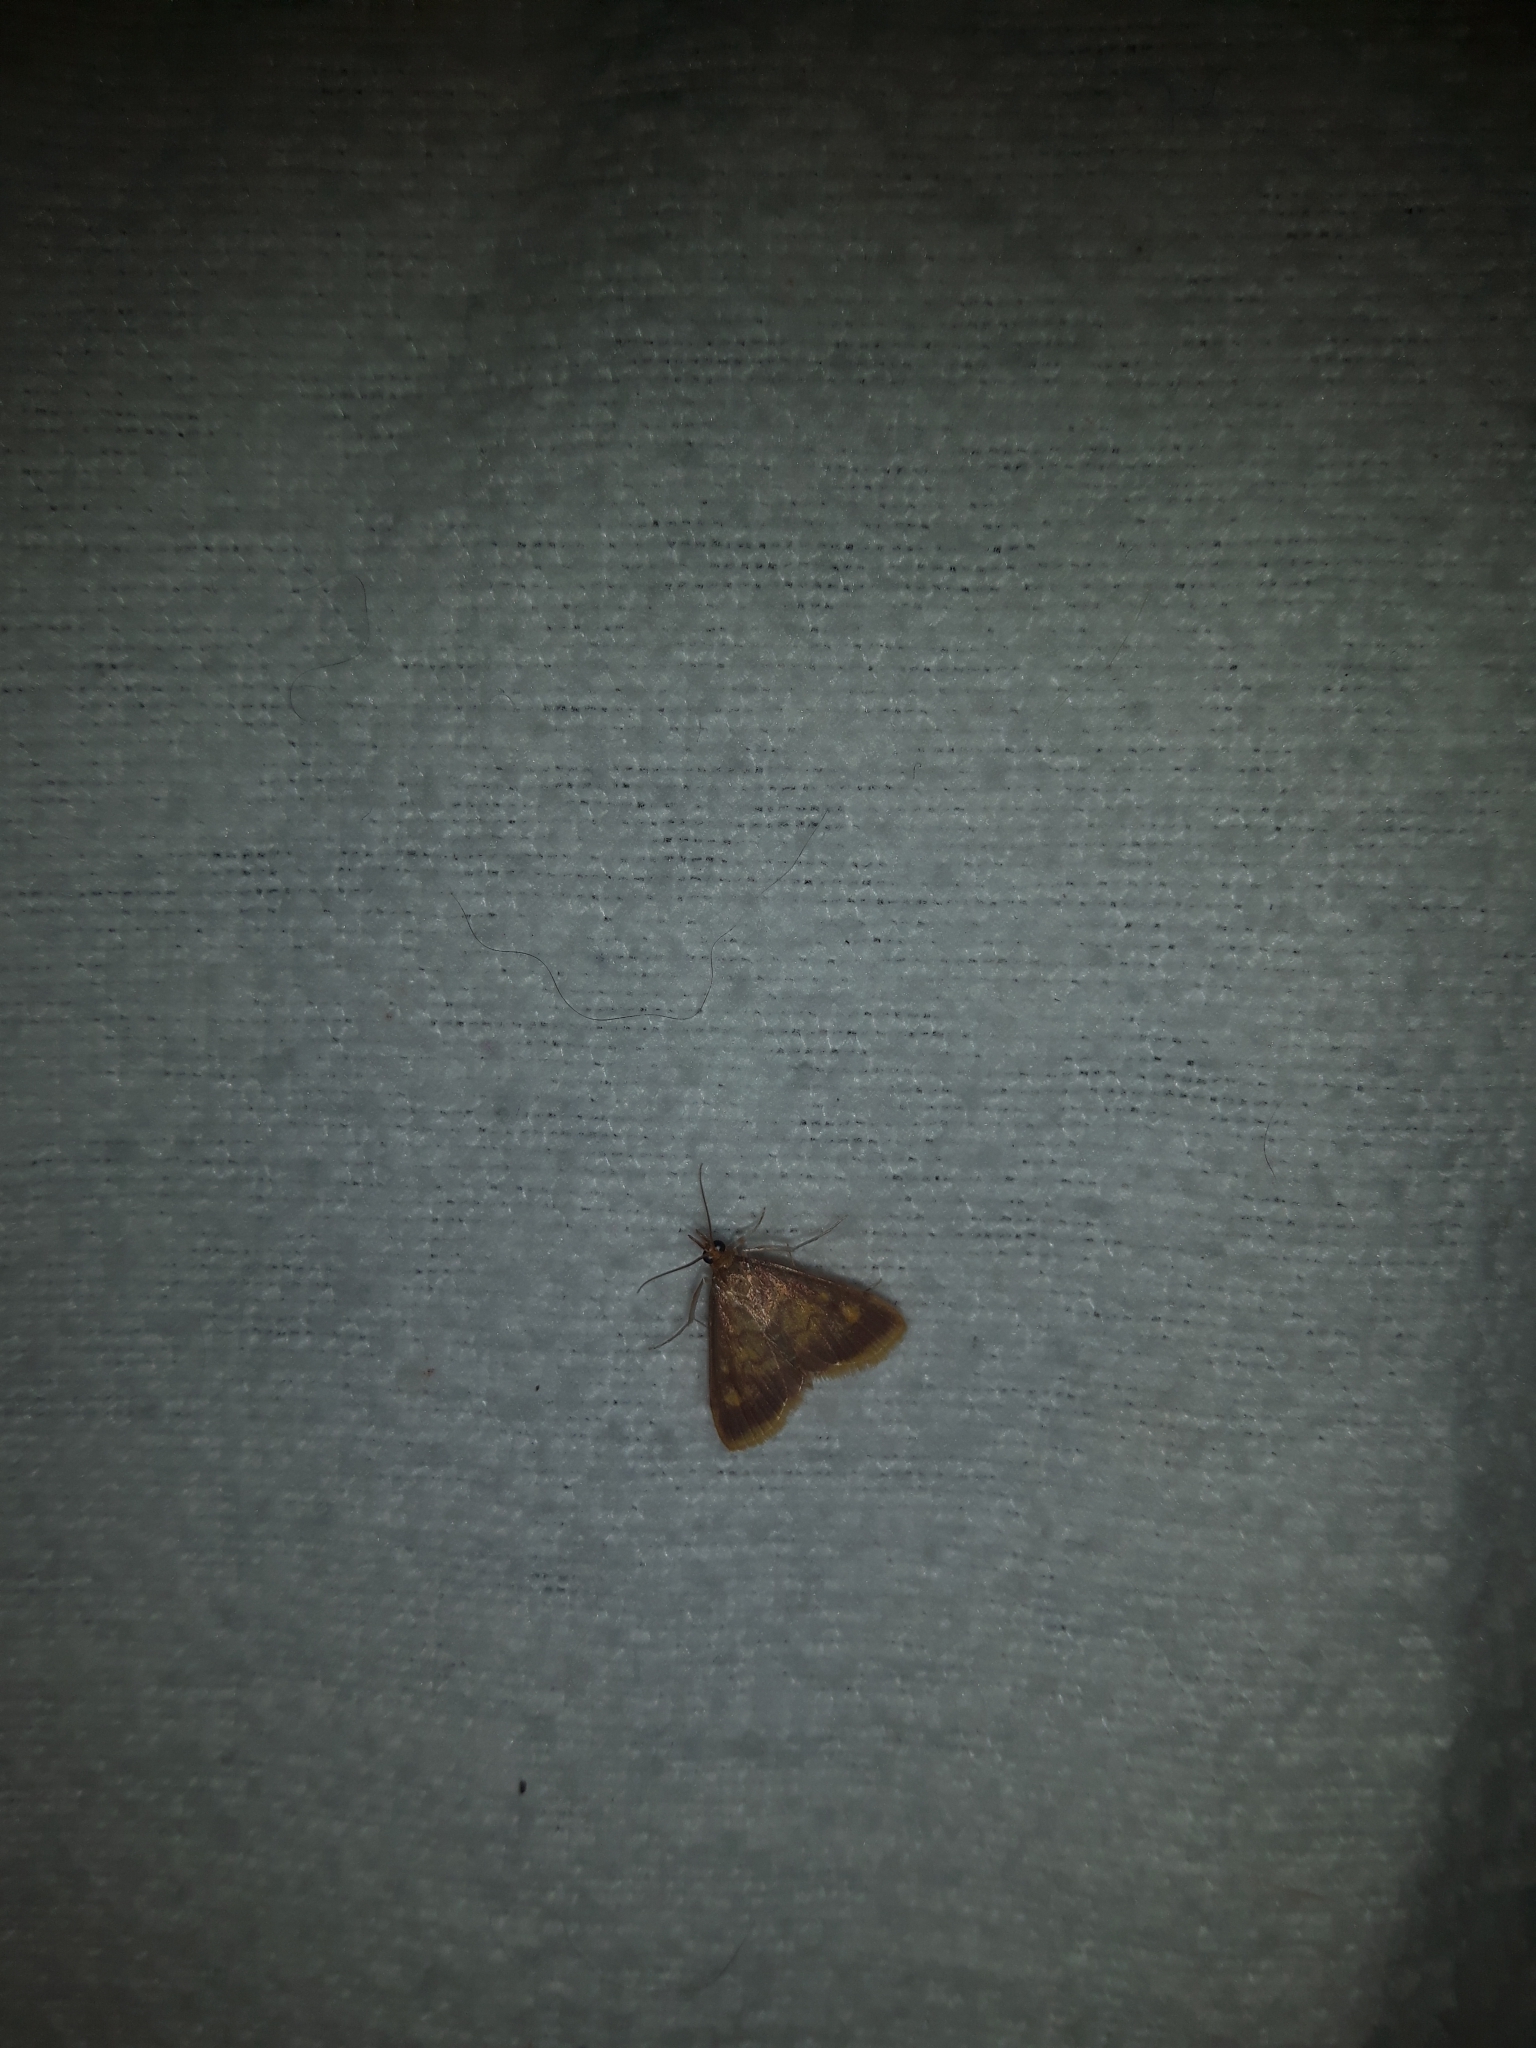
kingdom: Animalia
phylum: Arthropoda
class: Insecta
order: Lepidoptera
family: Crambidae
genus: Pyrausta
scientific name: Pyrausta acrionalis
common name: Mint-loving pyrausta moth
